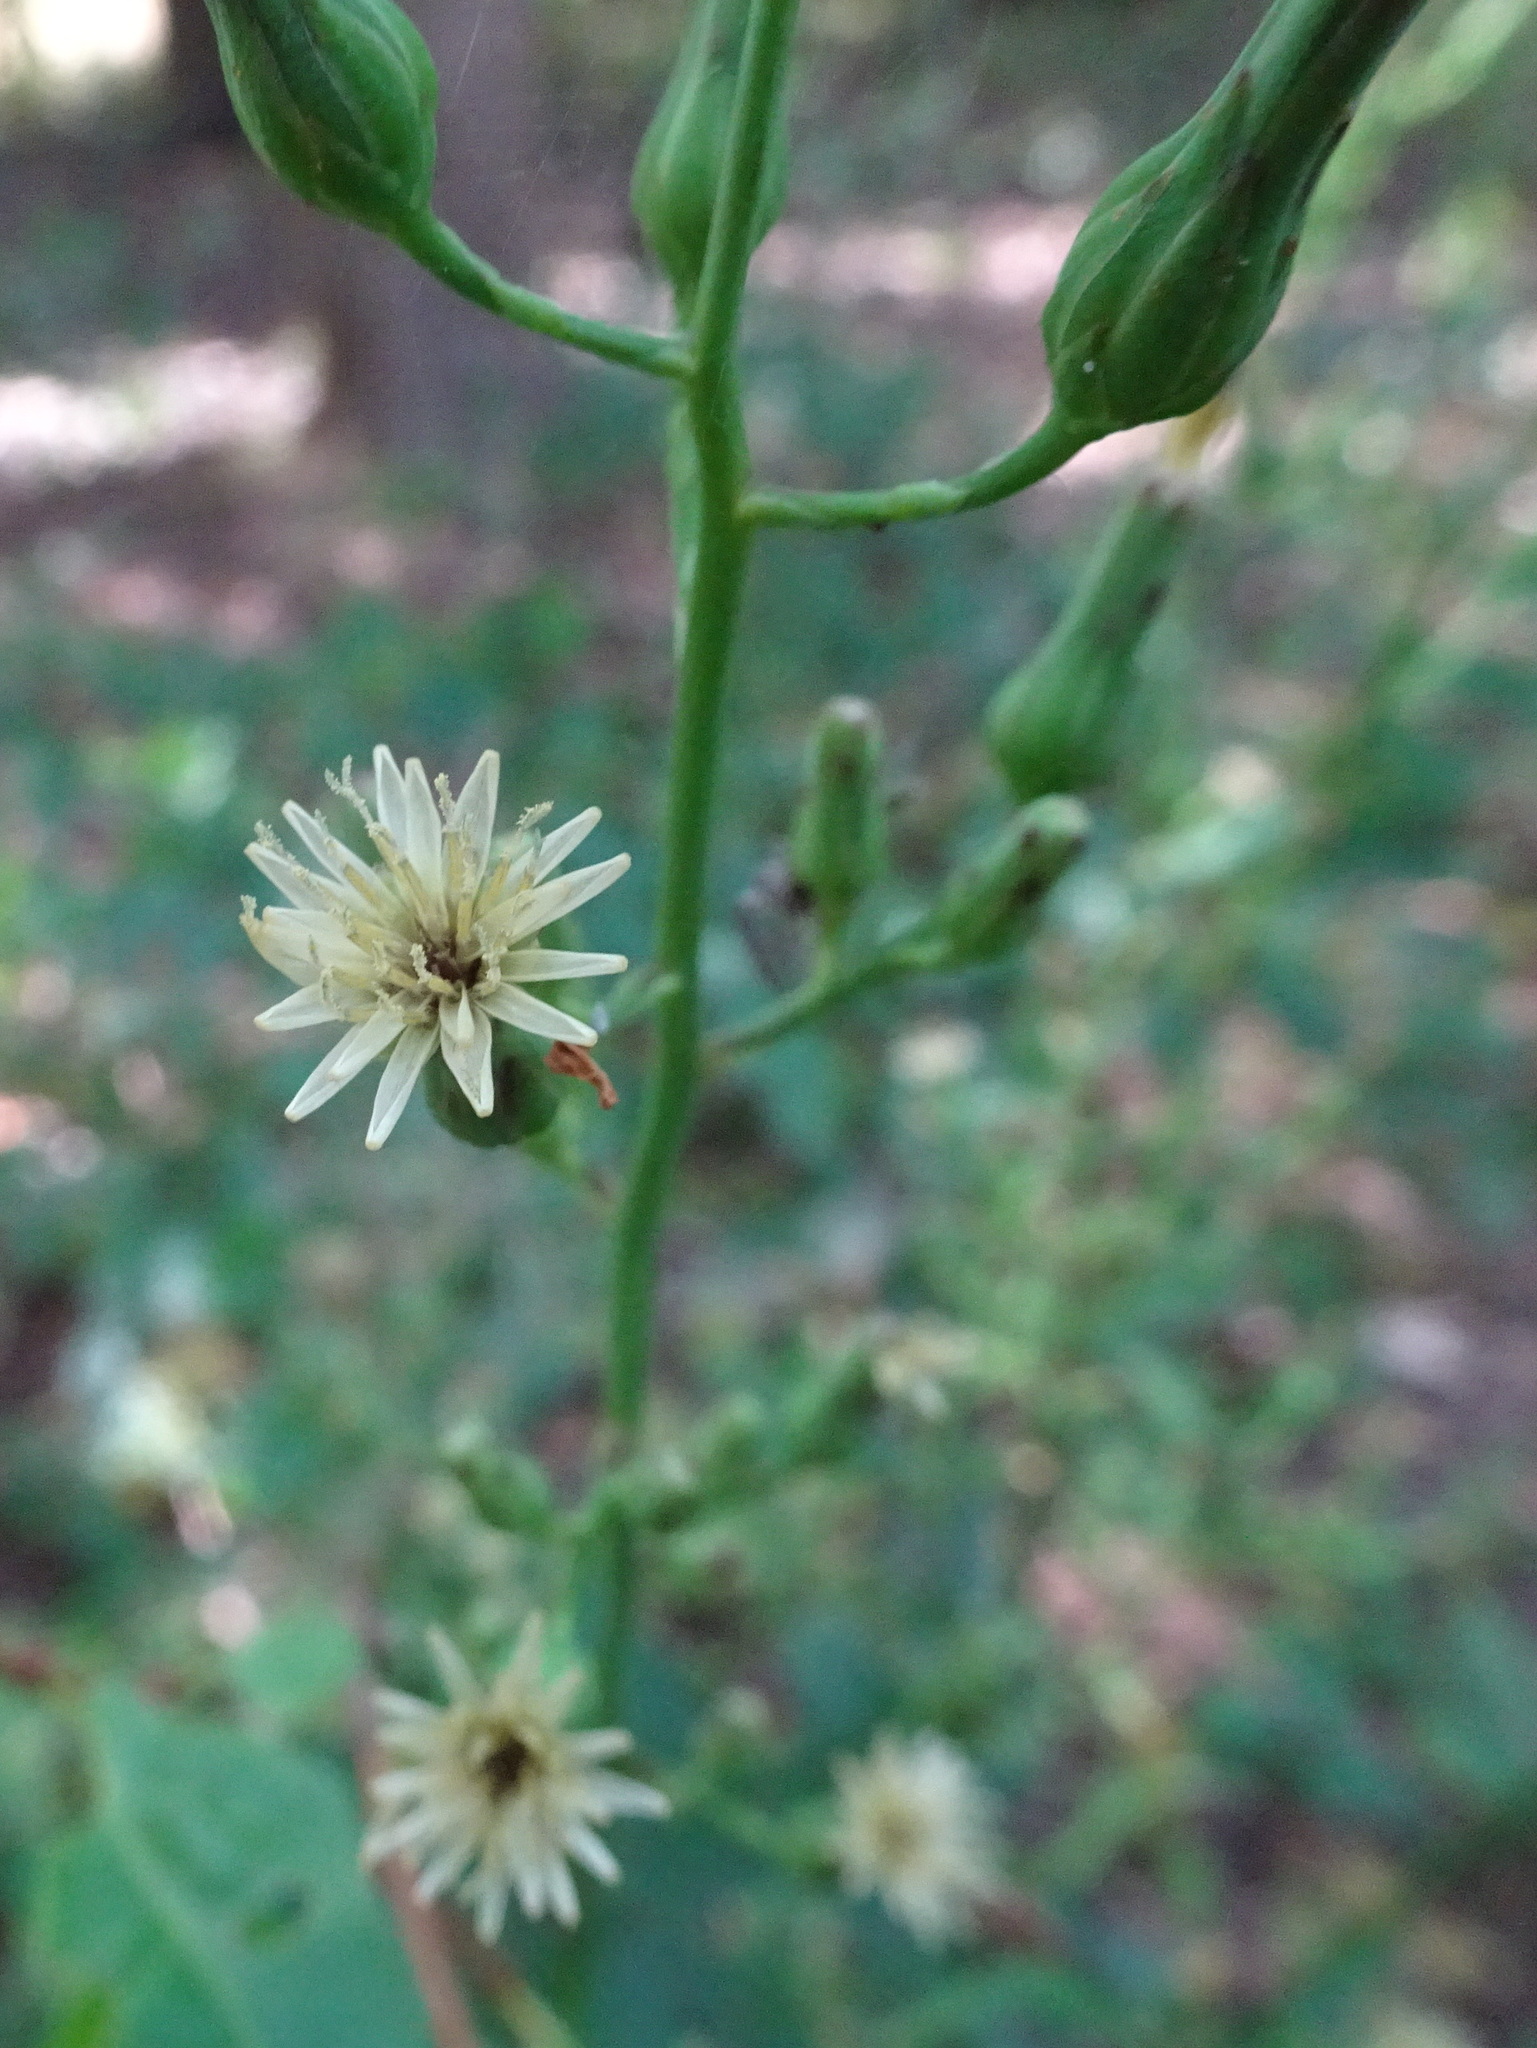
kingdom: Plantae
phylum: Tracheophyta
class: Magnoliopsida
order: Asterales
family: Asteraceae
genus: Lactuca
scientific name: Lactuca biennis
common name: Blue wood lettuce
